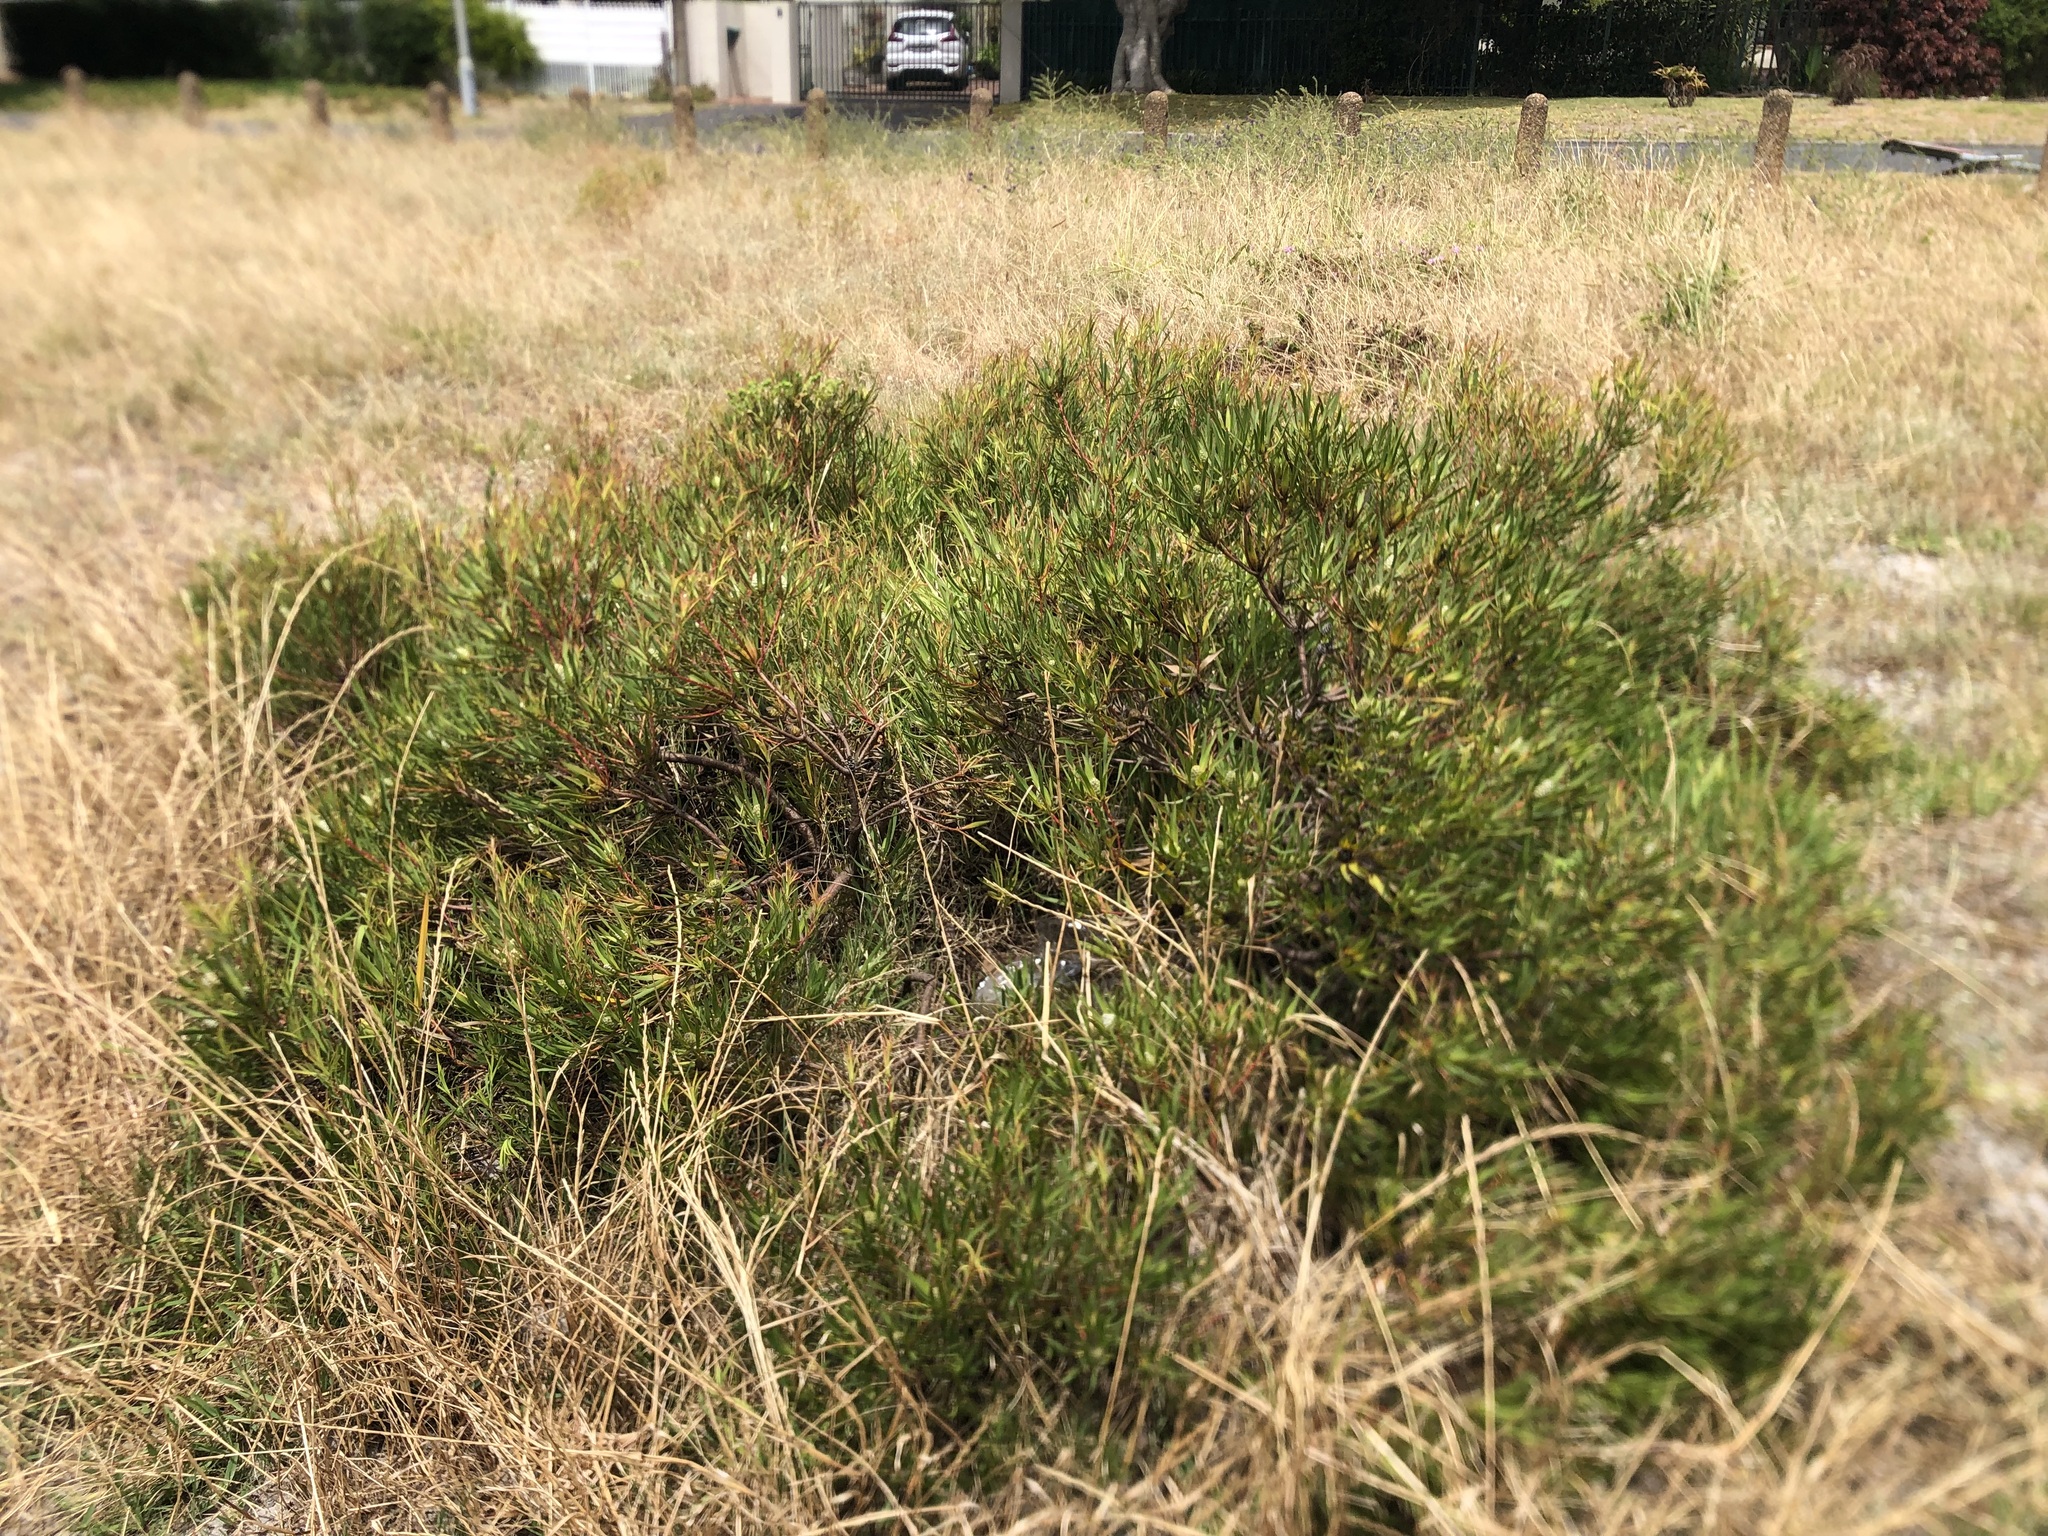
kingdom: Plantae
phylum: Tracheophyta
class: Magnoliopsida
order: Proteales
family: Proteaceae
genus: Leucadendron
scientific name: Leucadendron salignum
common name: Common sunshine conebush
